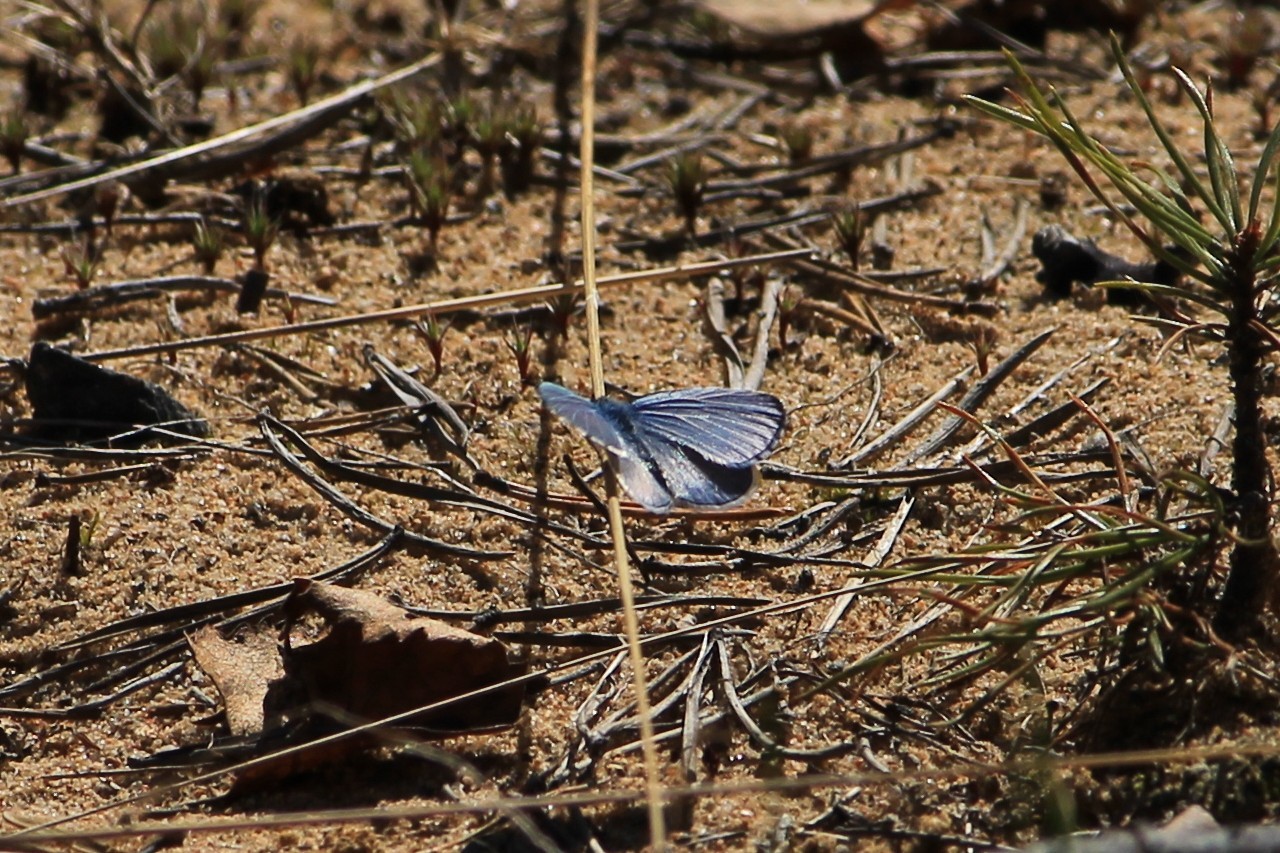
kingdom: Animalia
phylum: Arthropoda
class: Insecta
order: Lepidoptera
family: Lycaenidae
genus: Celastrina
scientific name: Celastrina argiolus
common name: Holly blue
